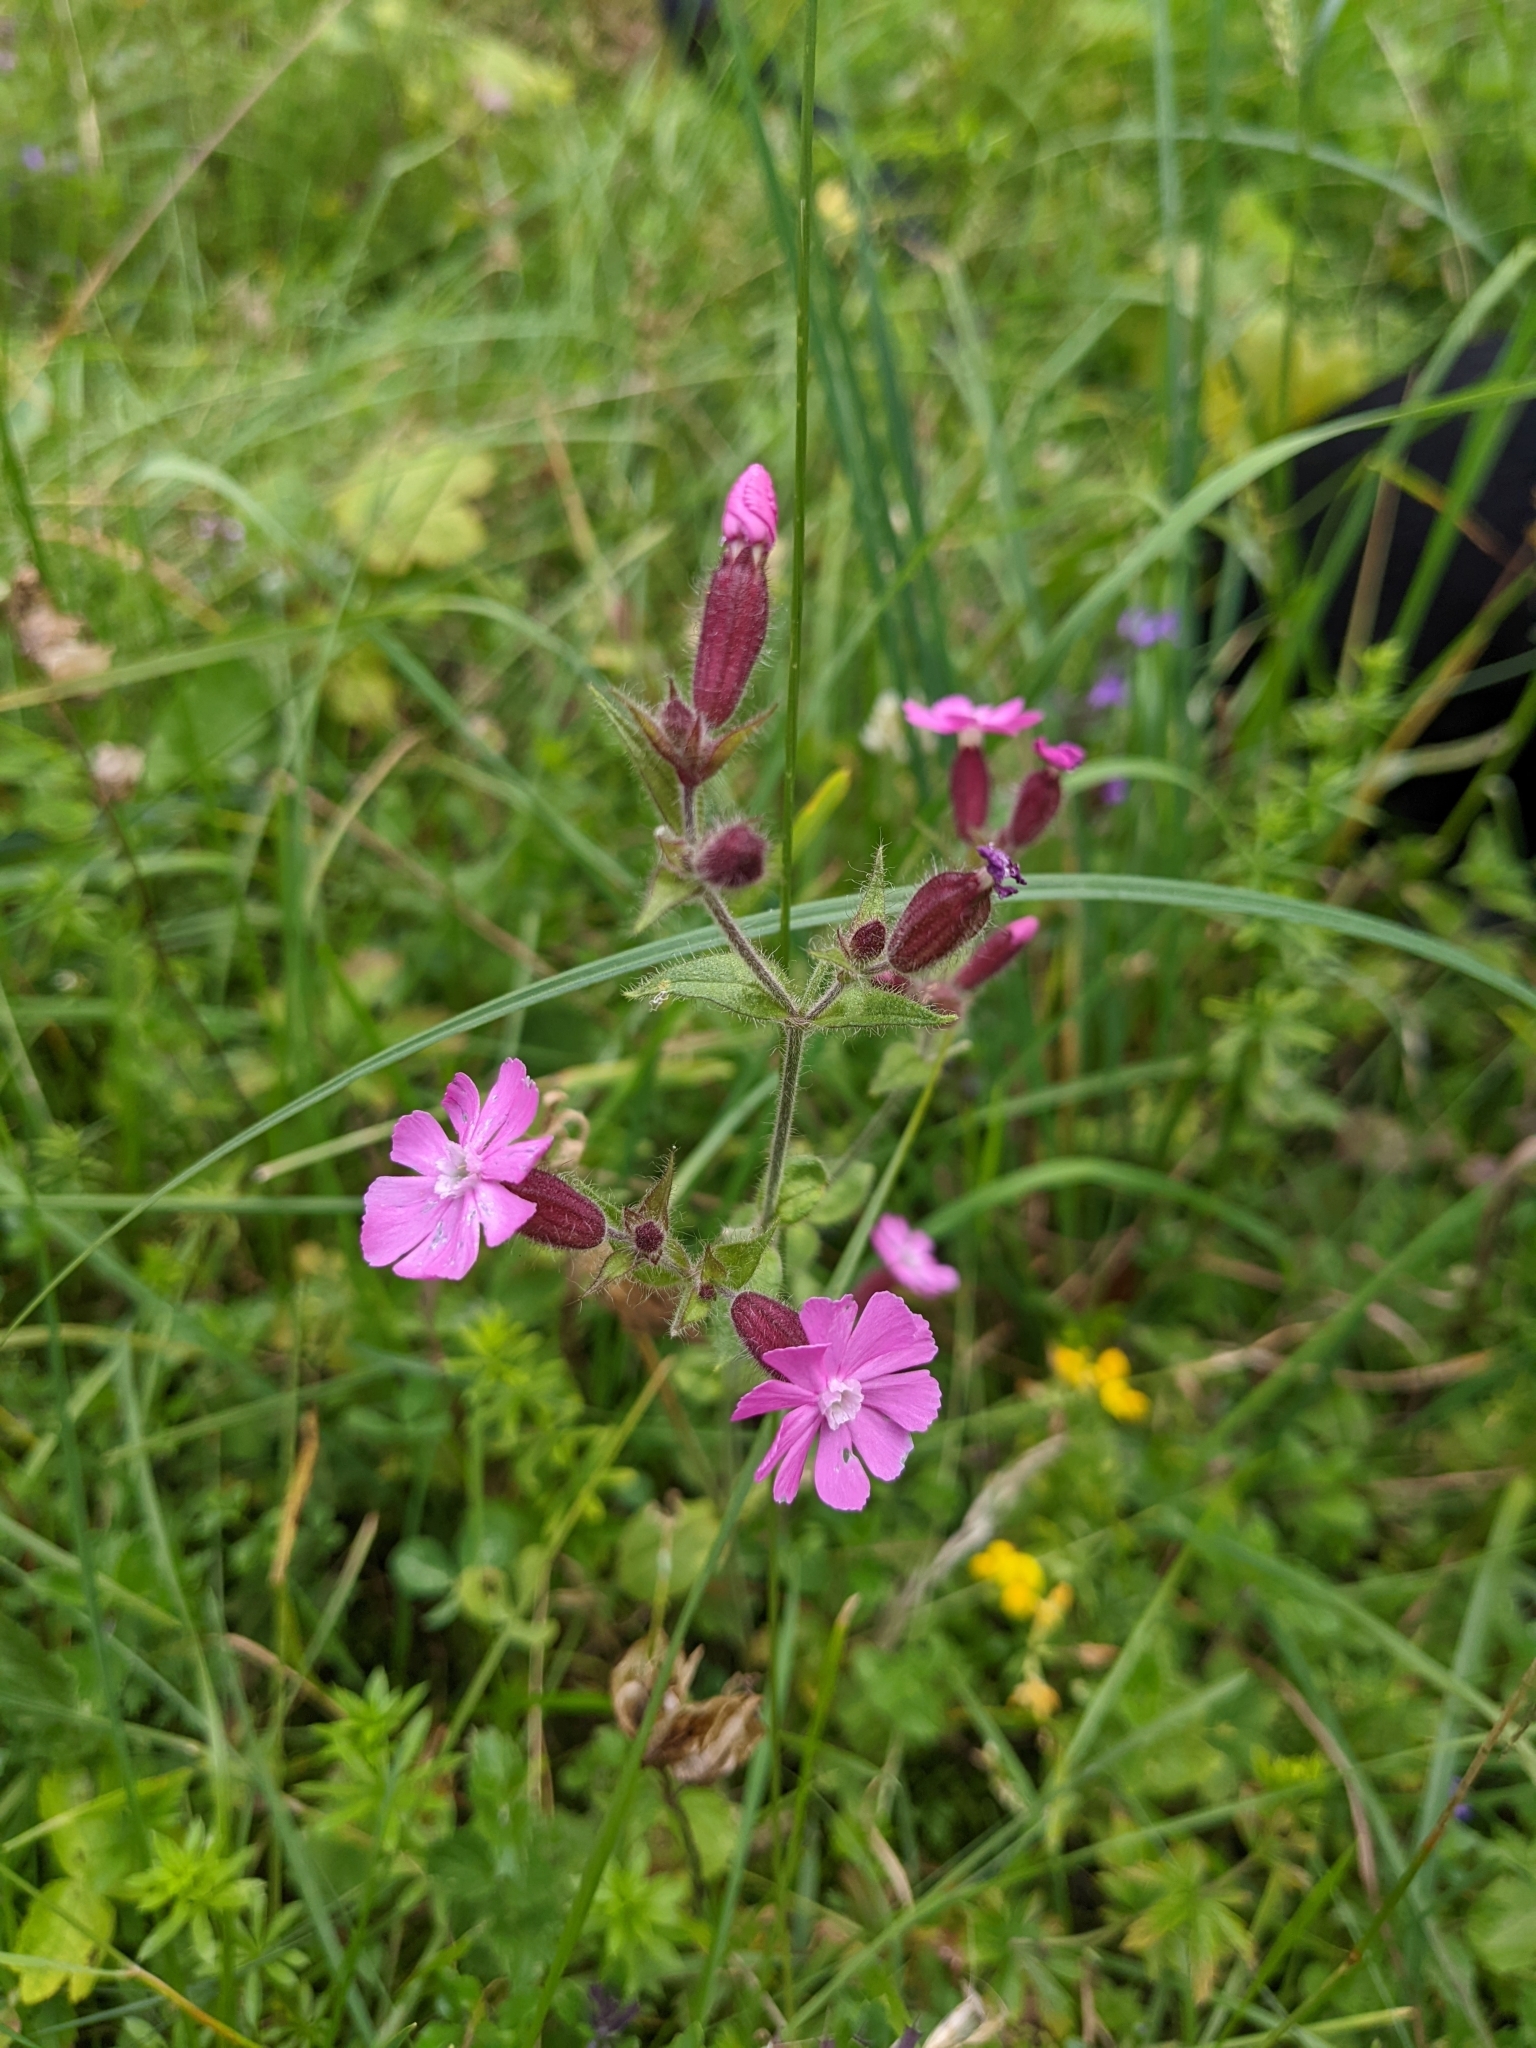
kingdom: Plantae
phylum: Tracheophyta
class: Magnoliopsida
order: Caryophyllales
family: Caryophyllaceae
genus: Silene
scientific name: Silene dioica
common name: Red campion
